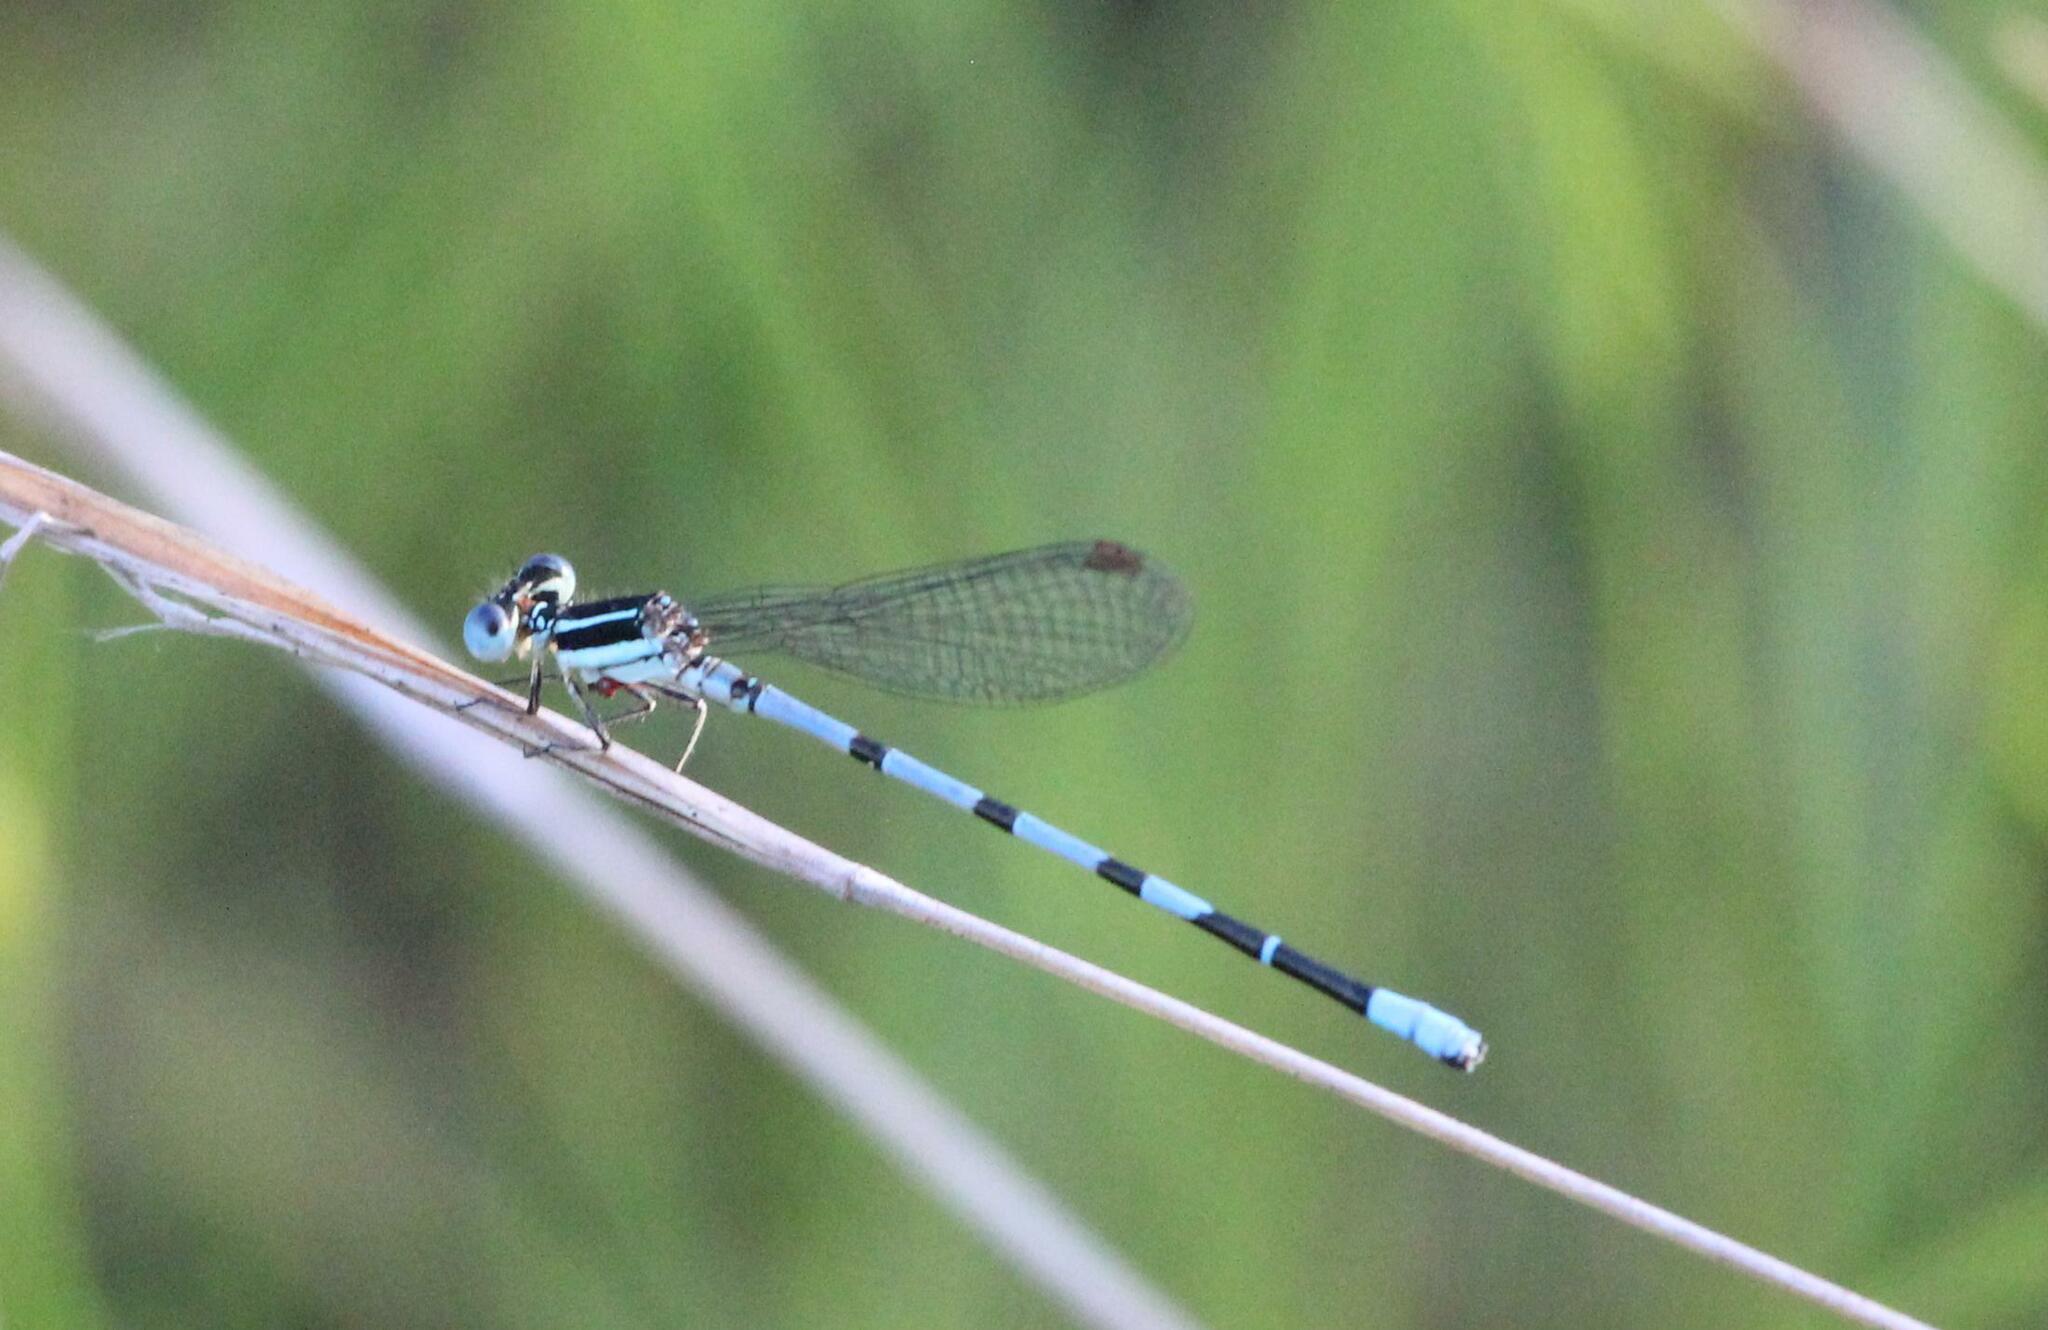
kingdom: Animalia
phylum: Arthropoda
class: Insecta
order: Odonata
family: Coenagrionidae
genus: Argia
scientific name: Argia bipunctulata
